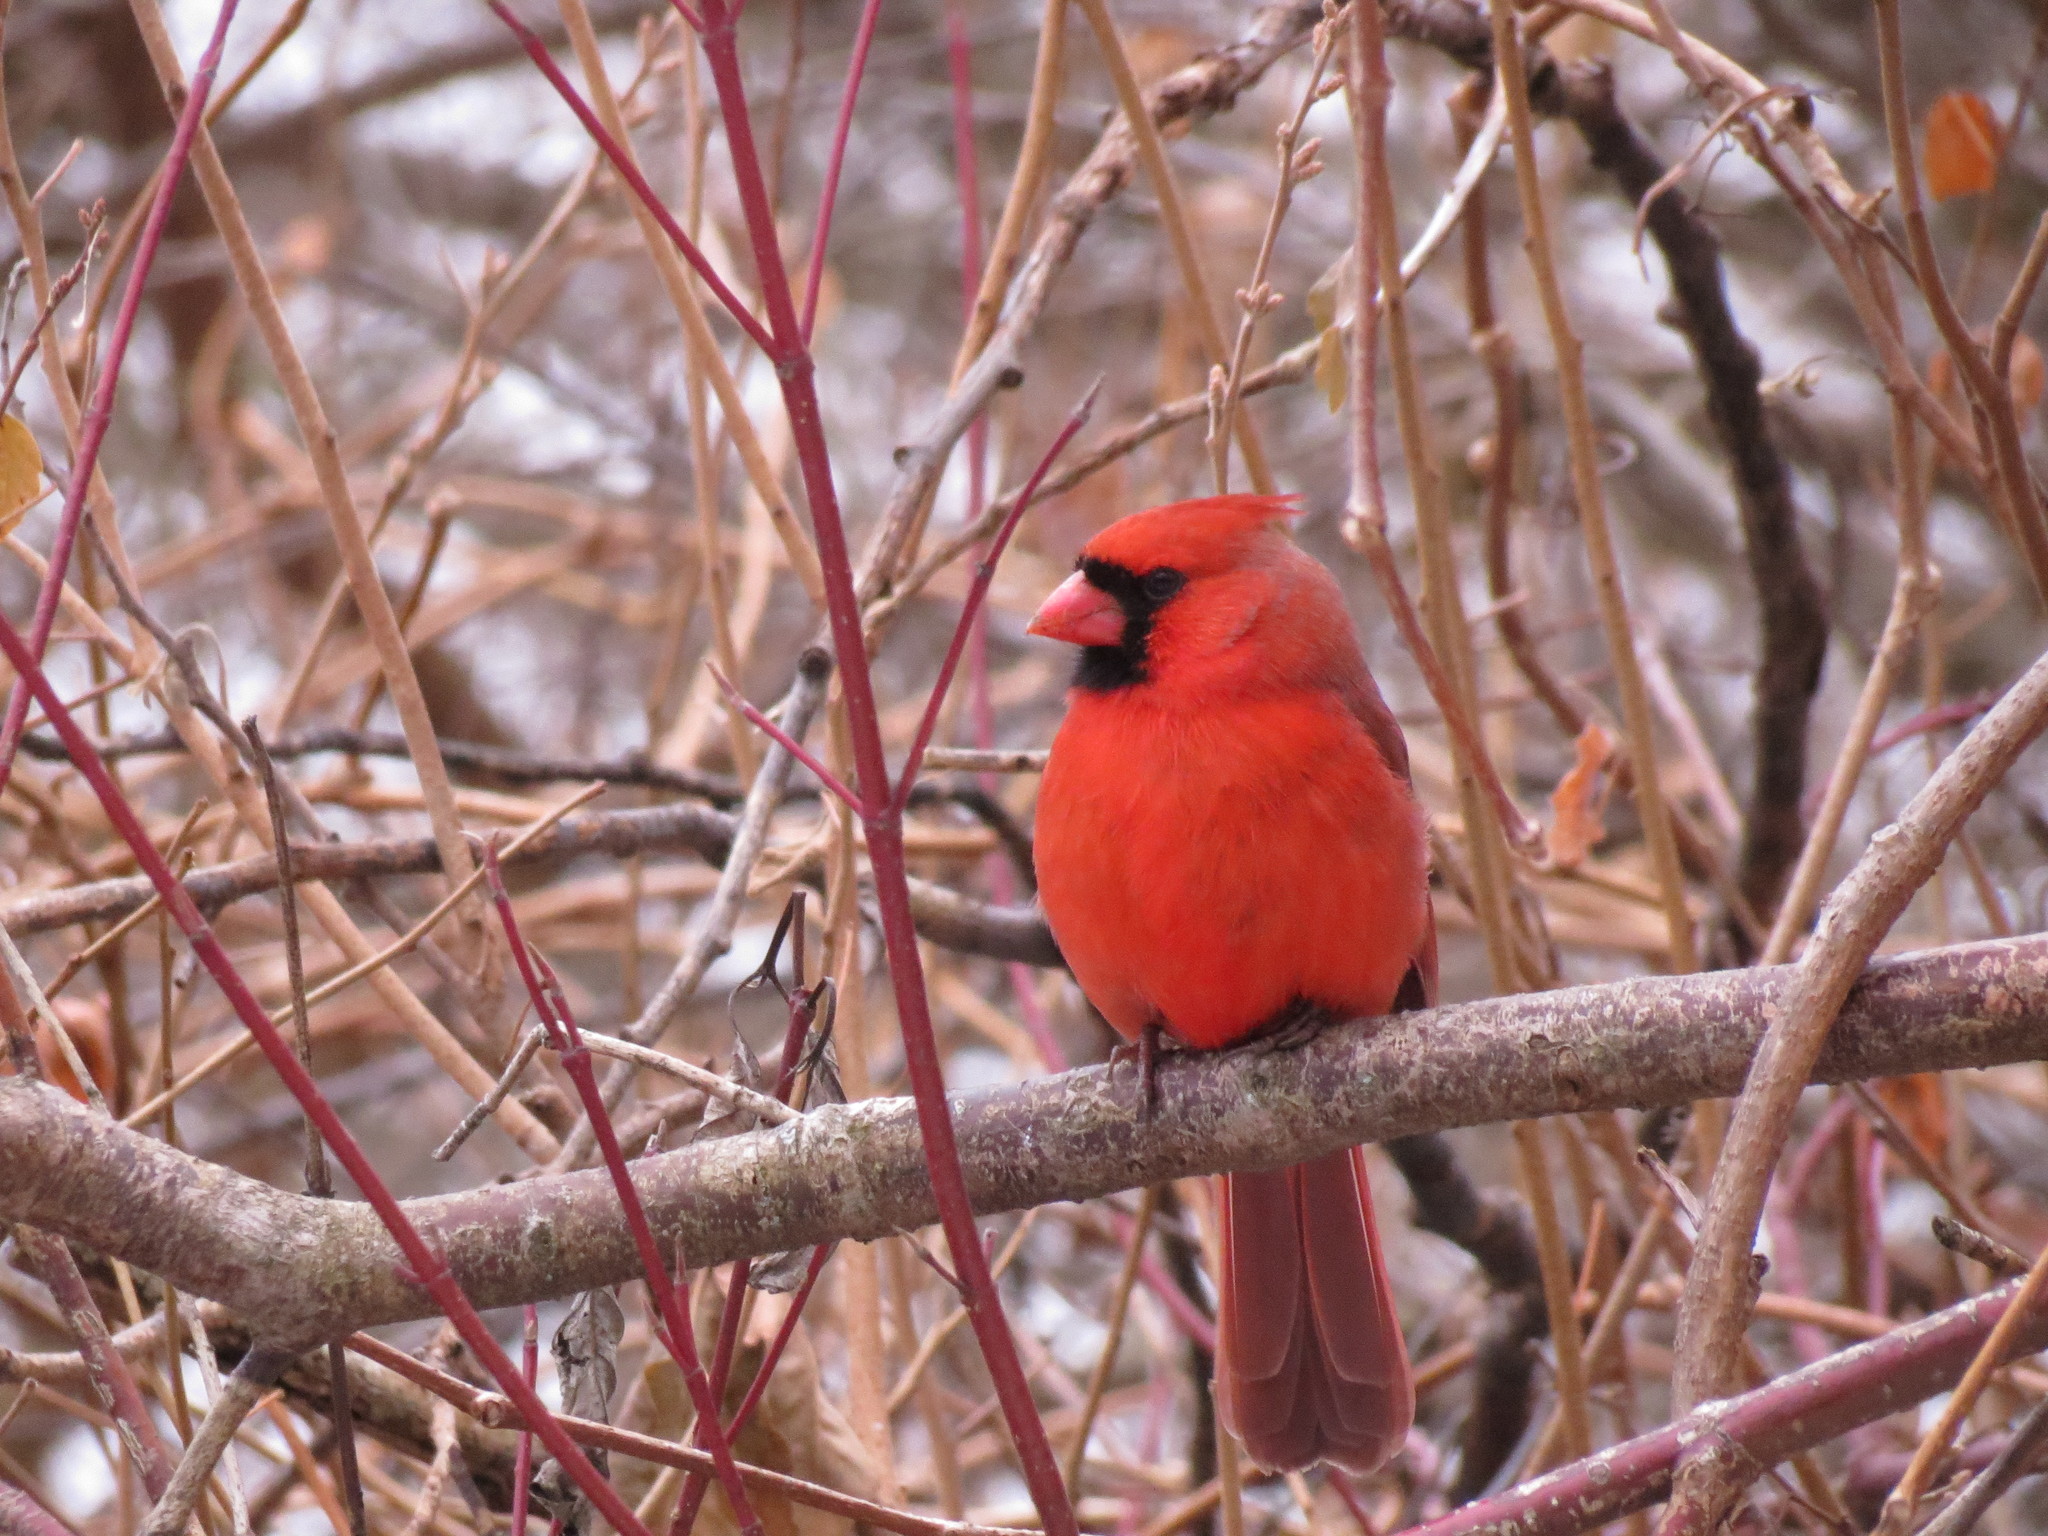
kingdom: Animalia
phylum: Chordata
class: Aves
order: Passeriformes
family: Cardinalidae
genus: Cardinalis
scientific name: Cardinalis cardinalis
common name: Northern cardinal
